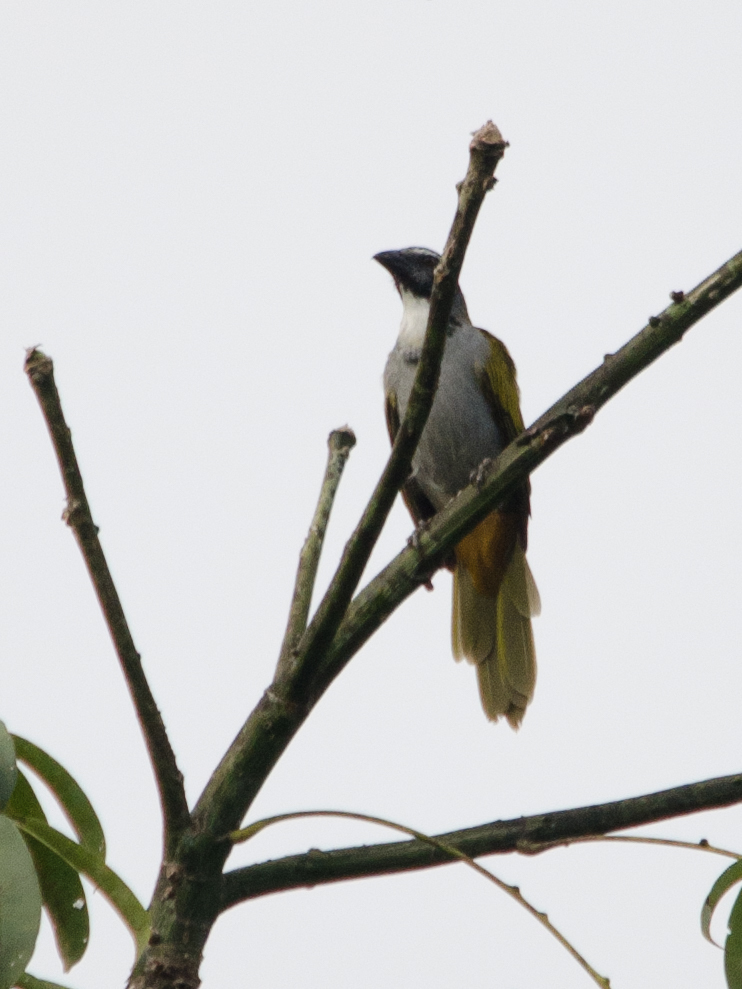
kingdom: Animalia
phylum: Chordata
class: Aves
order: Passeriformes
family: Thraupidae
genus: Saltator
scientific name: Saltator atriceps
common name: Black-headed saltator
